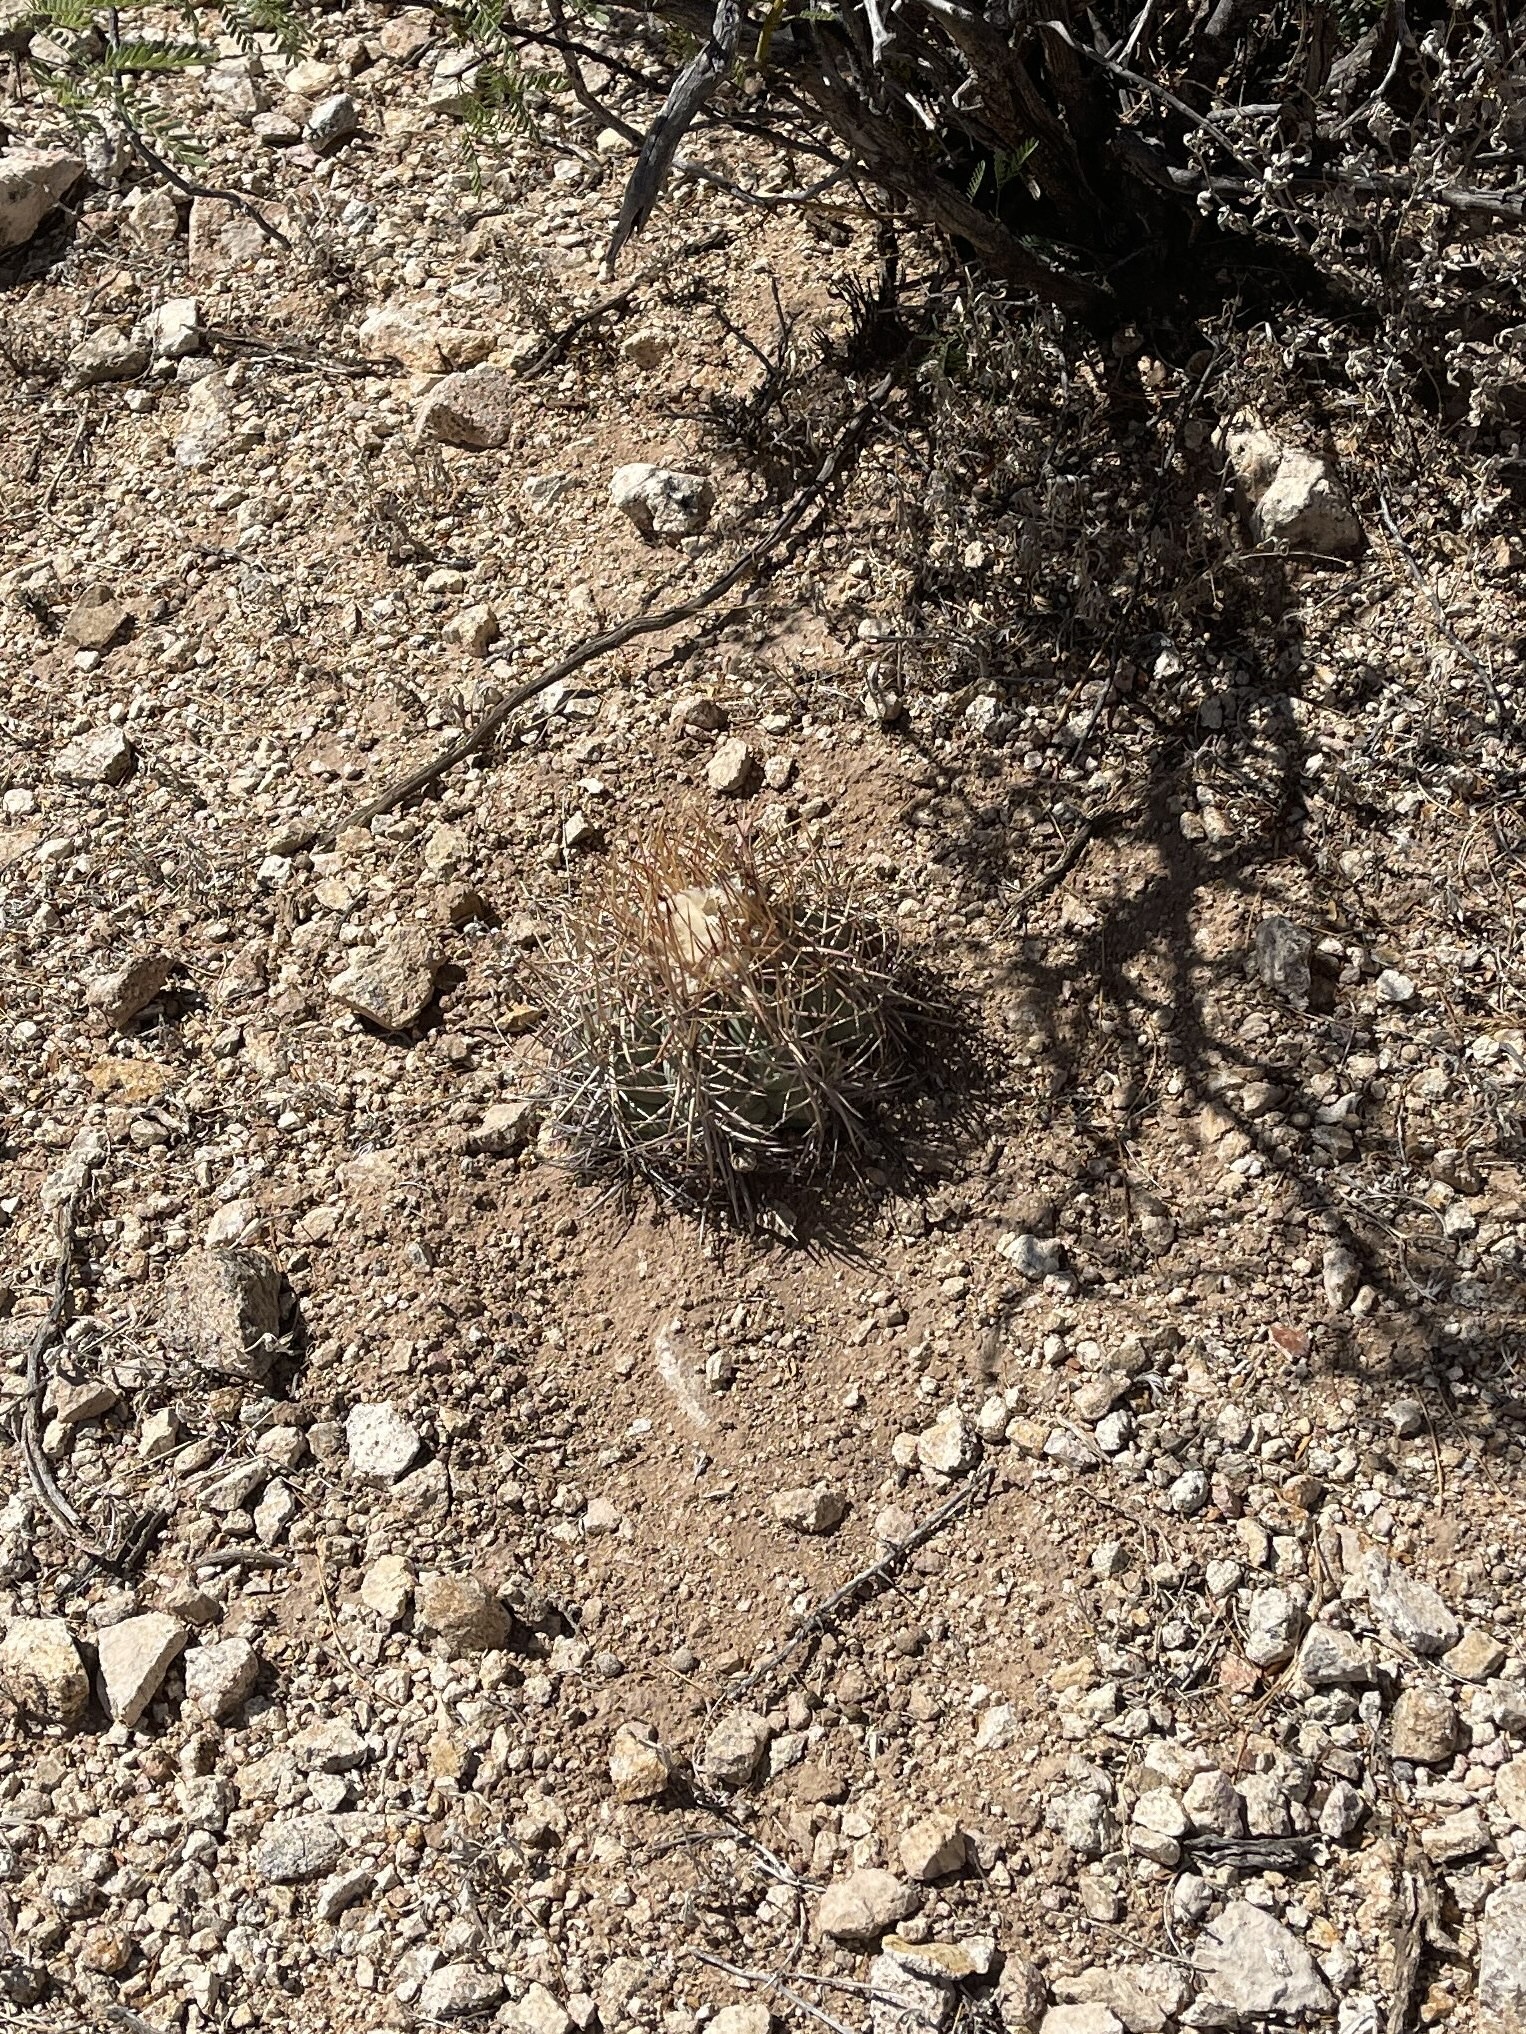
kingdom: Plantae
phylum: Tracheophyta
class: Magnoliopsida
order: Caryophyllales
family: Cactaceae
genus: Echinocactus
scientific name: Echinocactus horizonthalonius
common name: Devilshead
